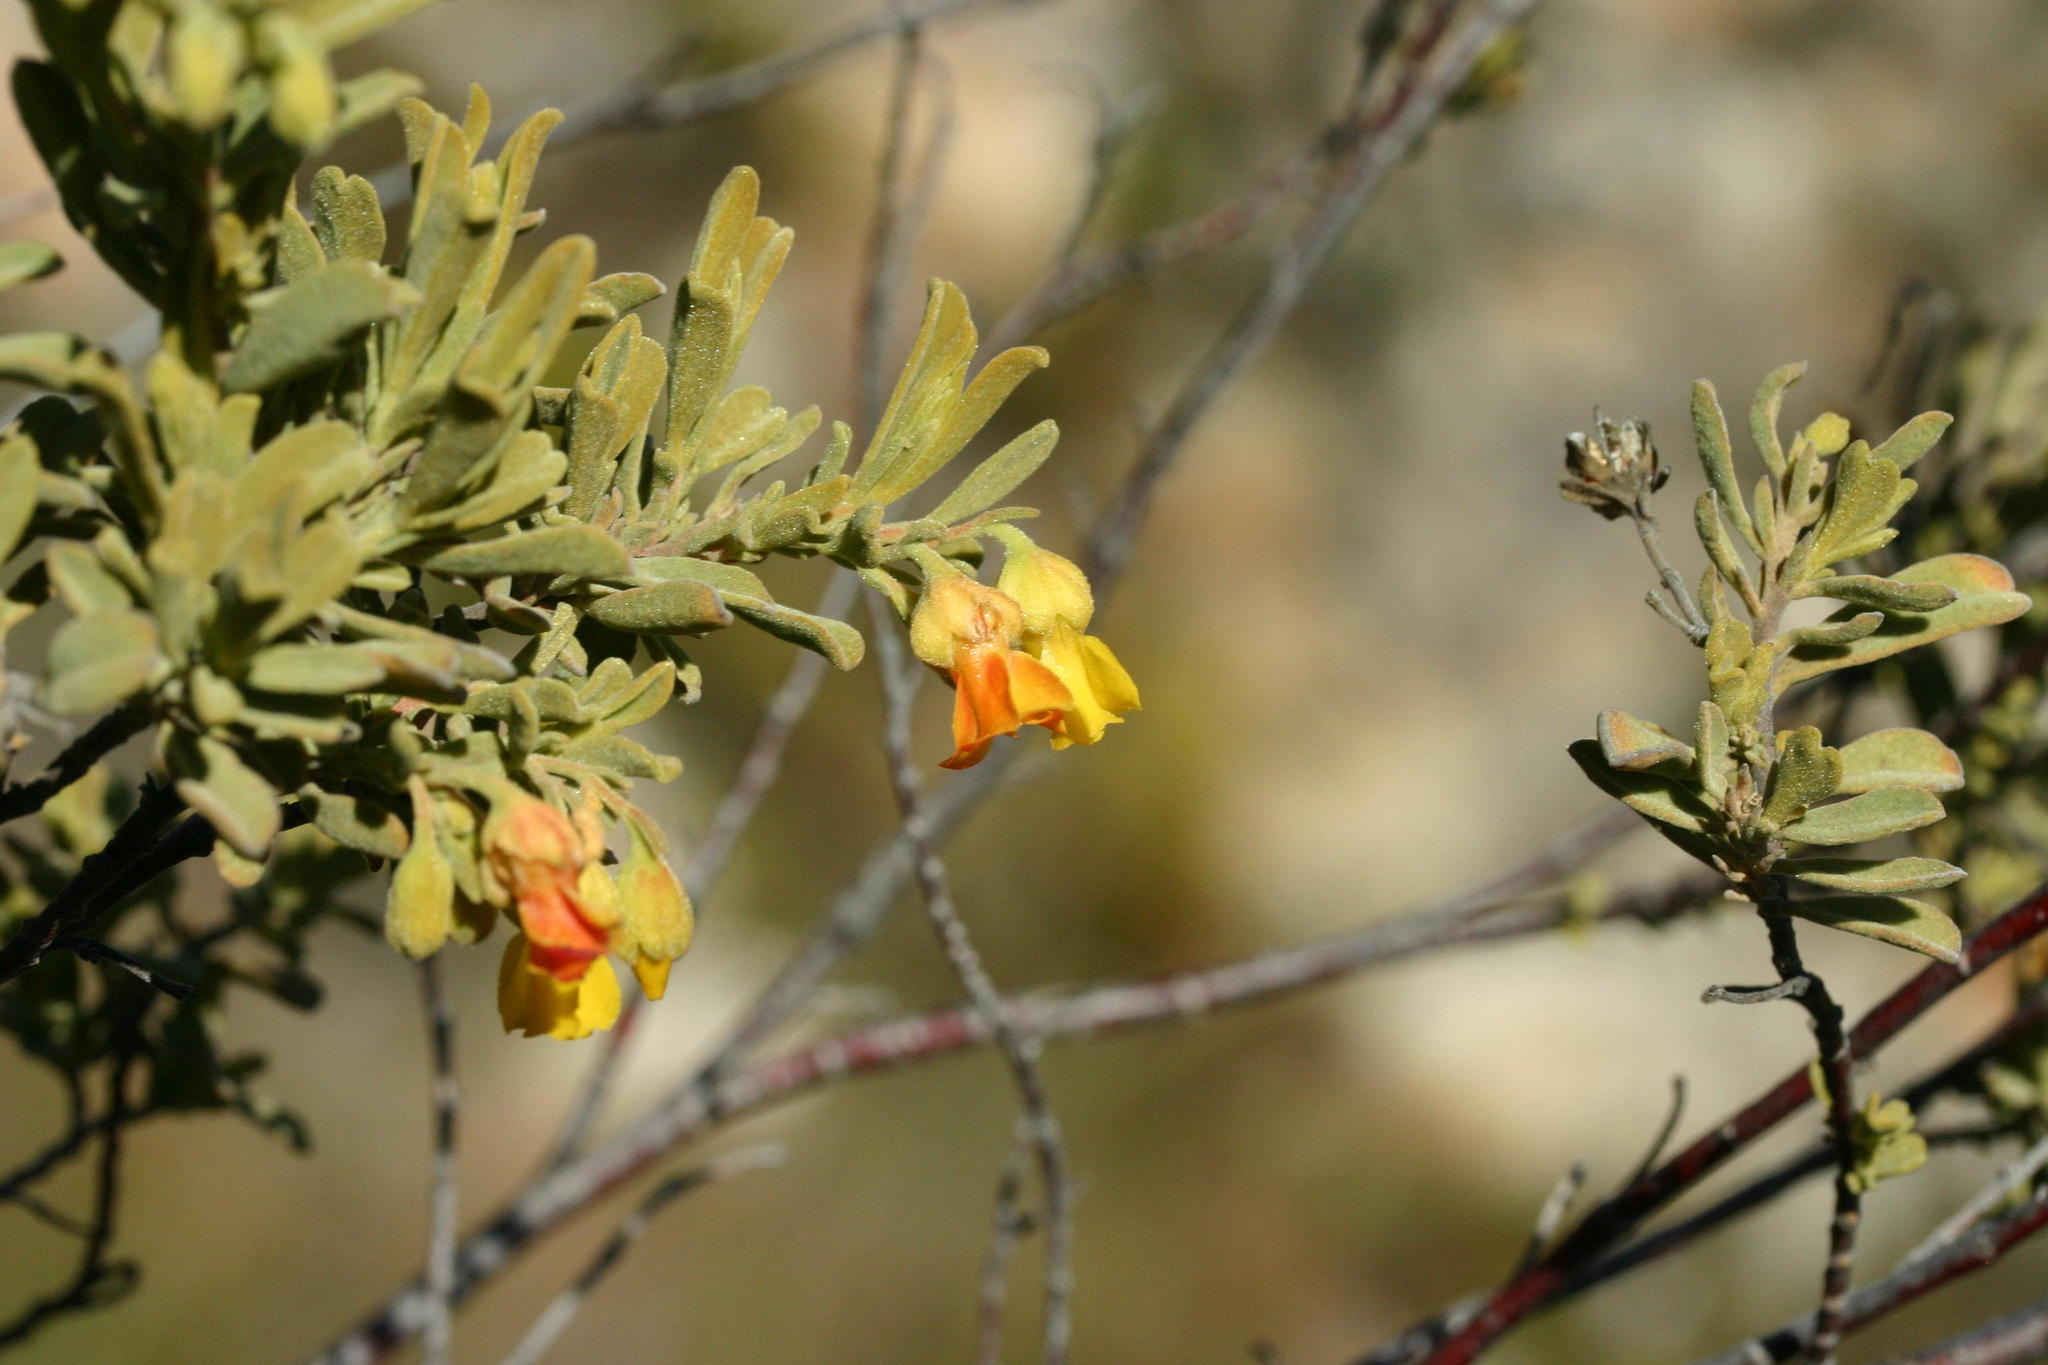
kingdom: Plantae
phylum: Tracheophyta
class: Magnoliopsida
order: Malvales
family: Malvaceae
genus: Hermannia
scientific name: Hermannia odorata
